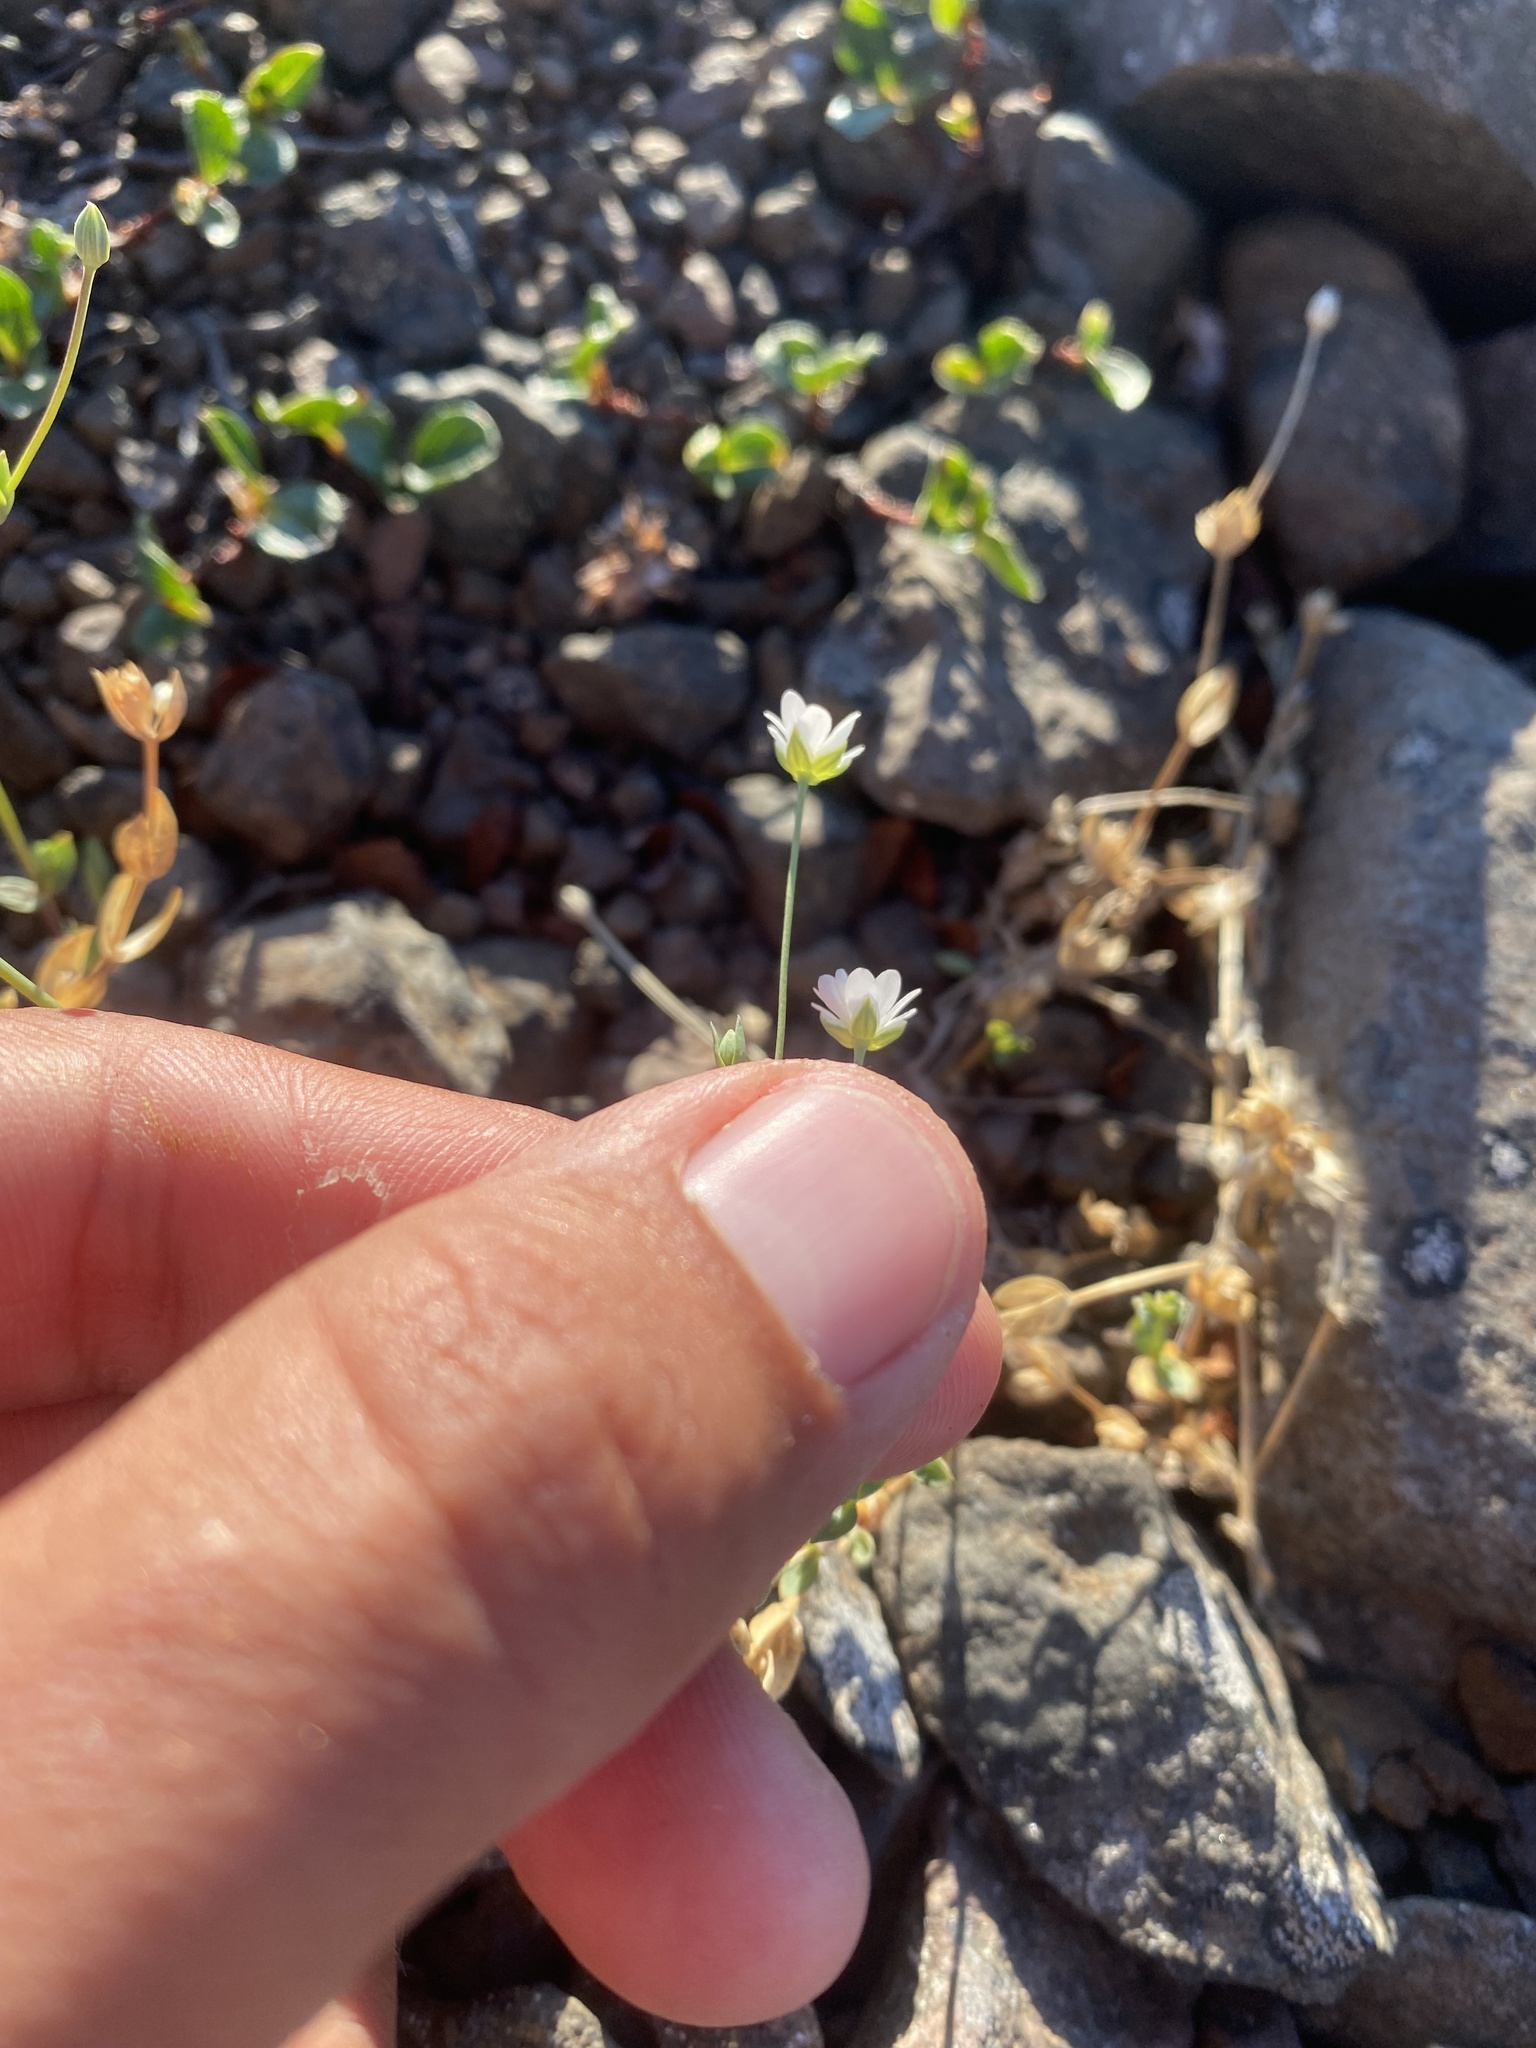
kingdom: Plantae
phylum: Tracheophyta
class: Magnoliopsida
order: Caryophyllales
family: Caryophyllaceae
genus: Stellaria
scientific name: Stellaria longipes
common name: Goldie's starwort
